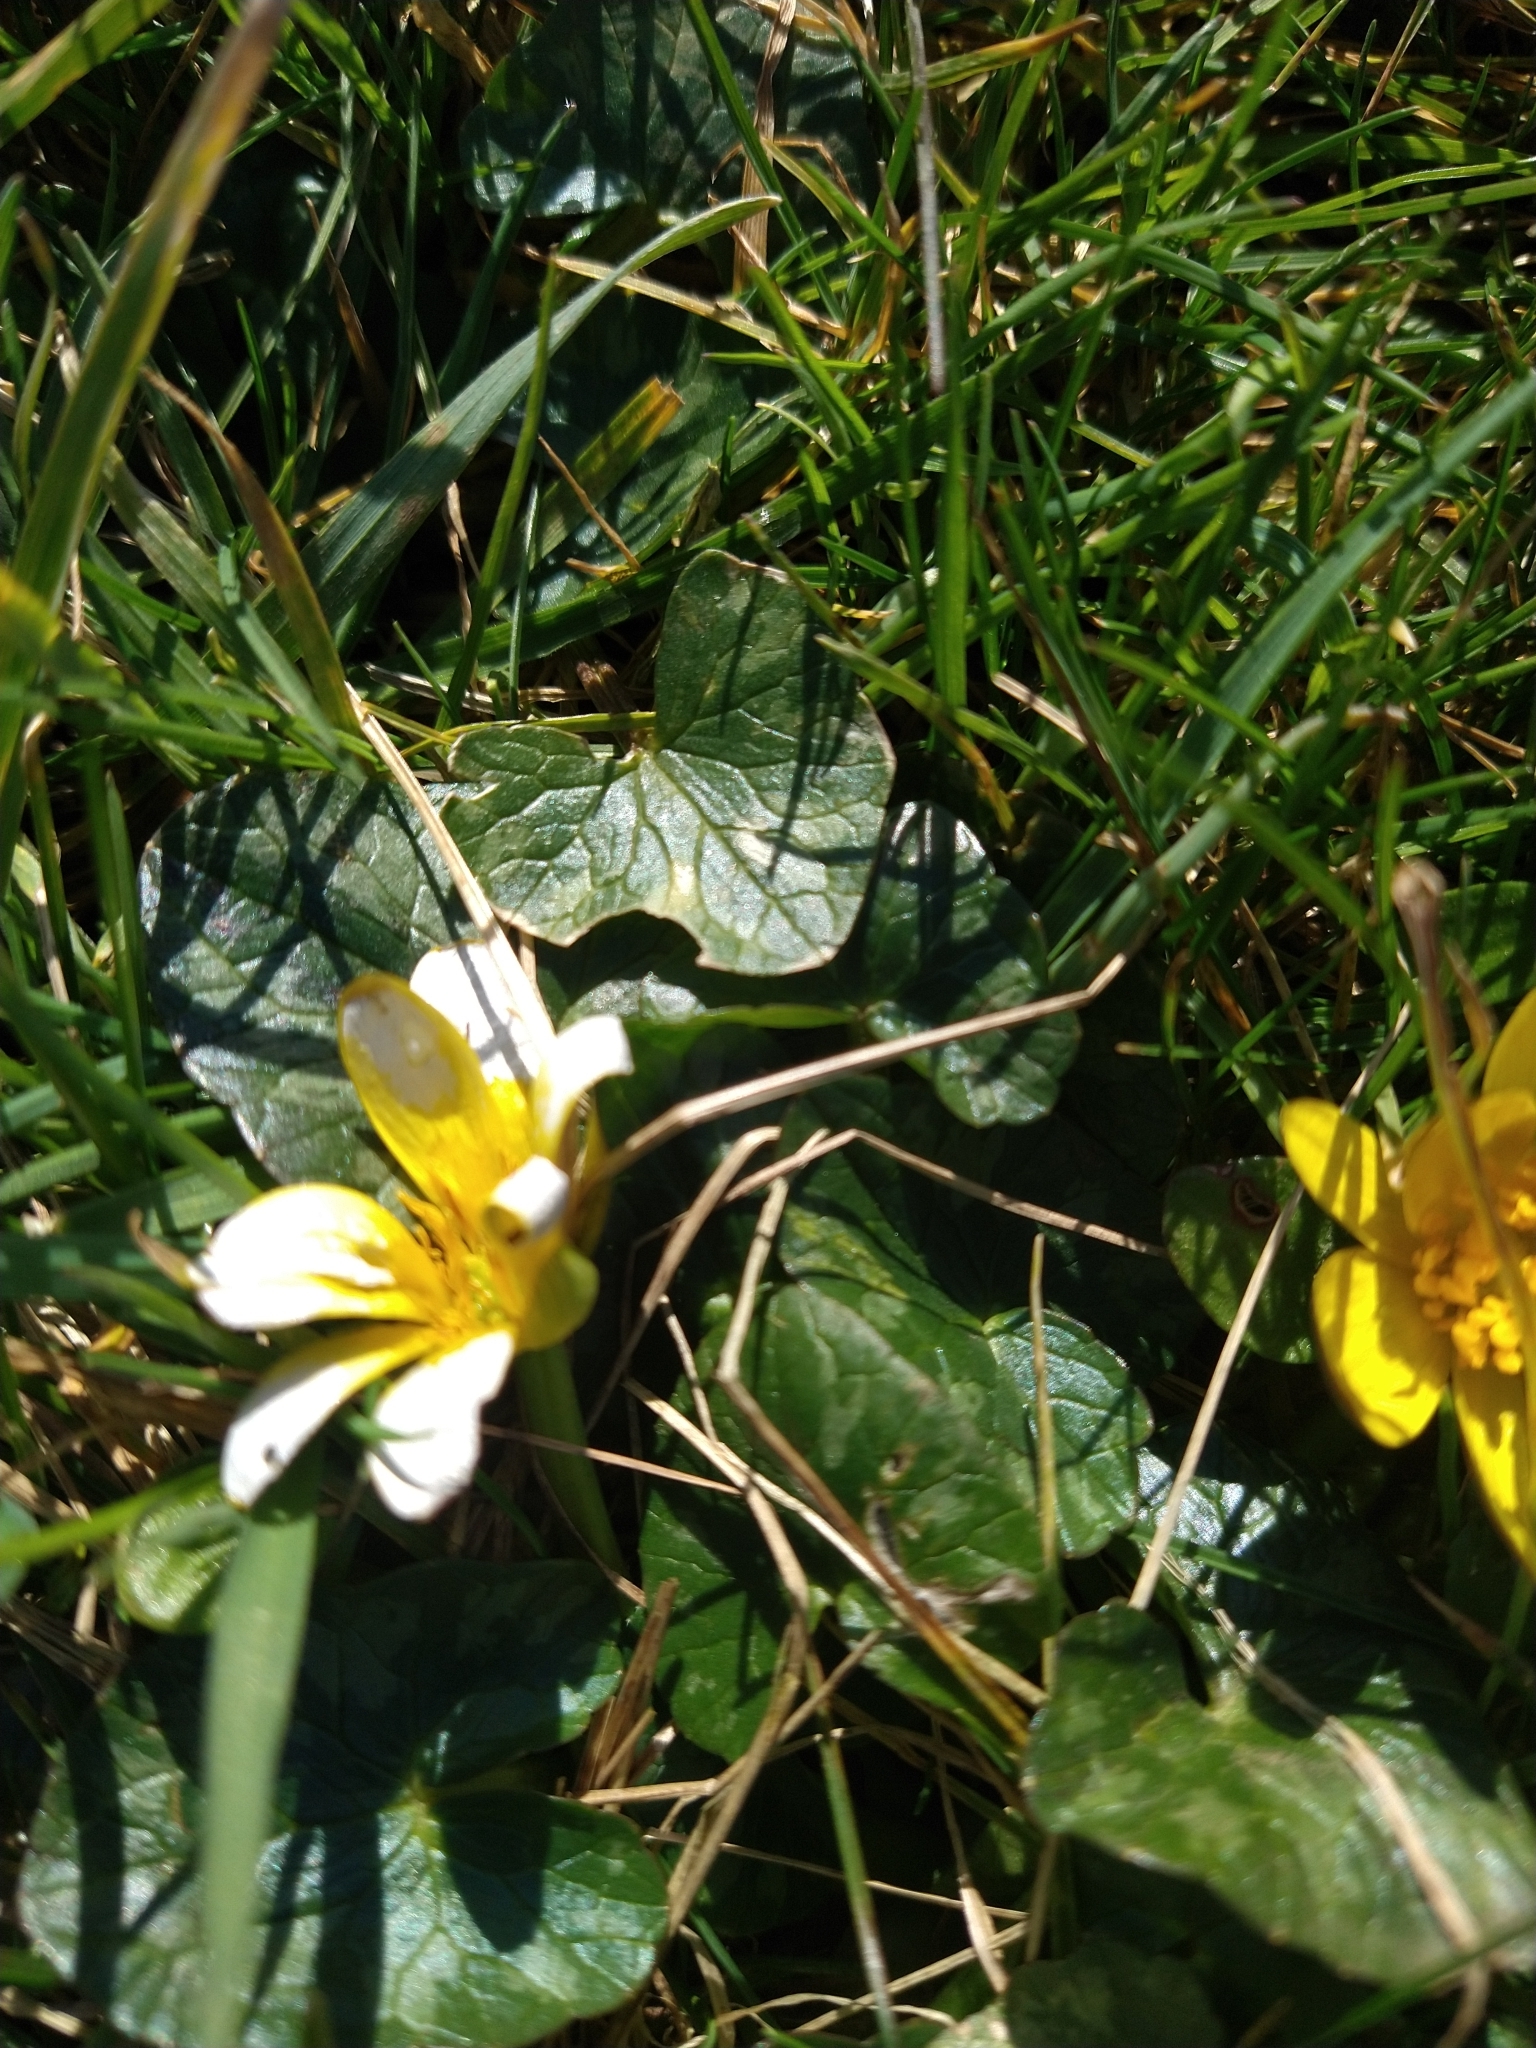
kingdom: Plantae
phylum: Tracheophyta
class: Magnoliopsida
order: Ranunculales
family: Ranunculaceae
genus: Ficaria
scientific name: Ficaria verna
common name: Lesser celandine
